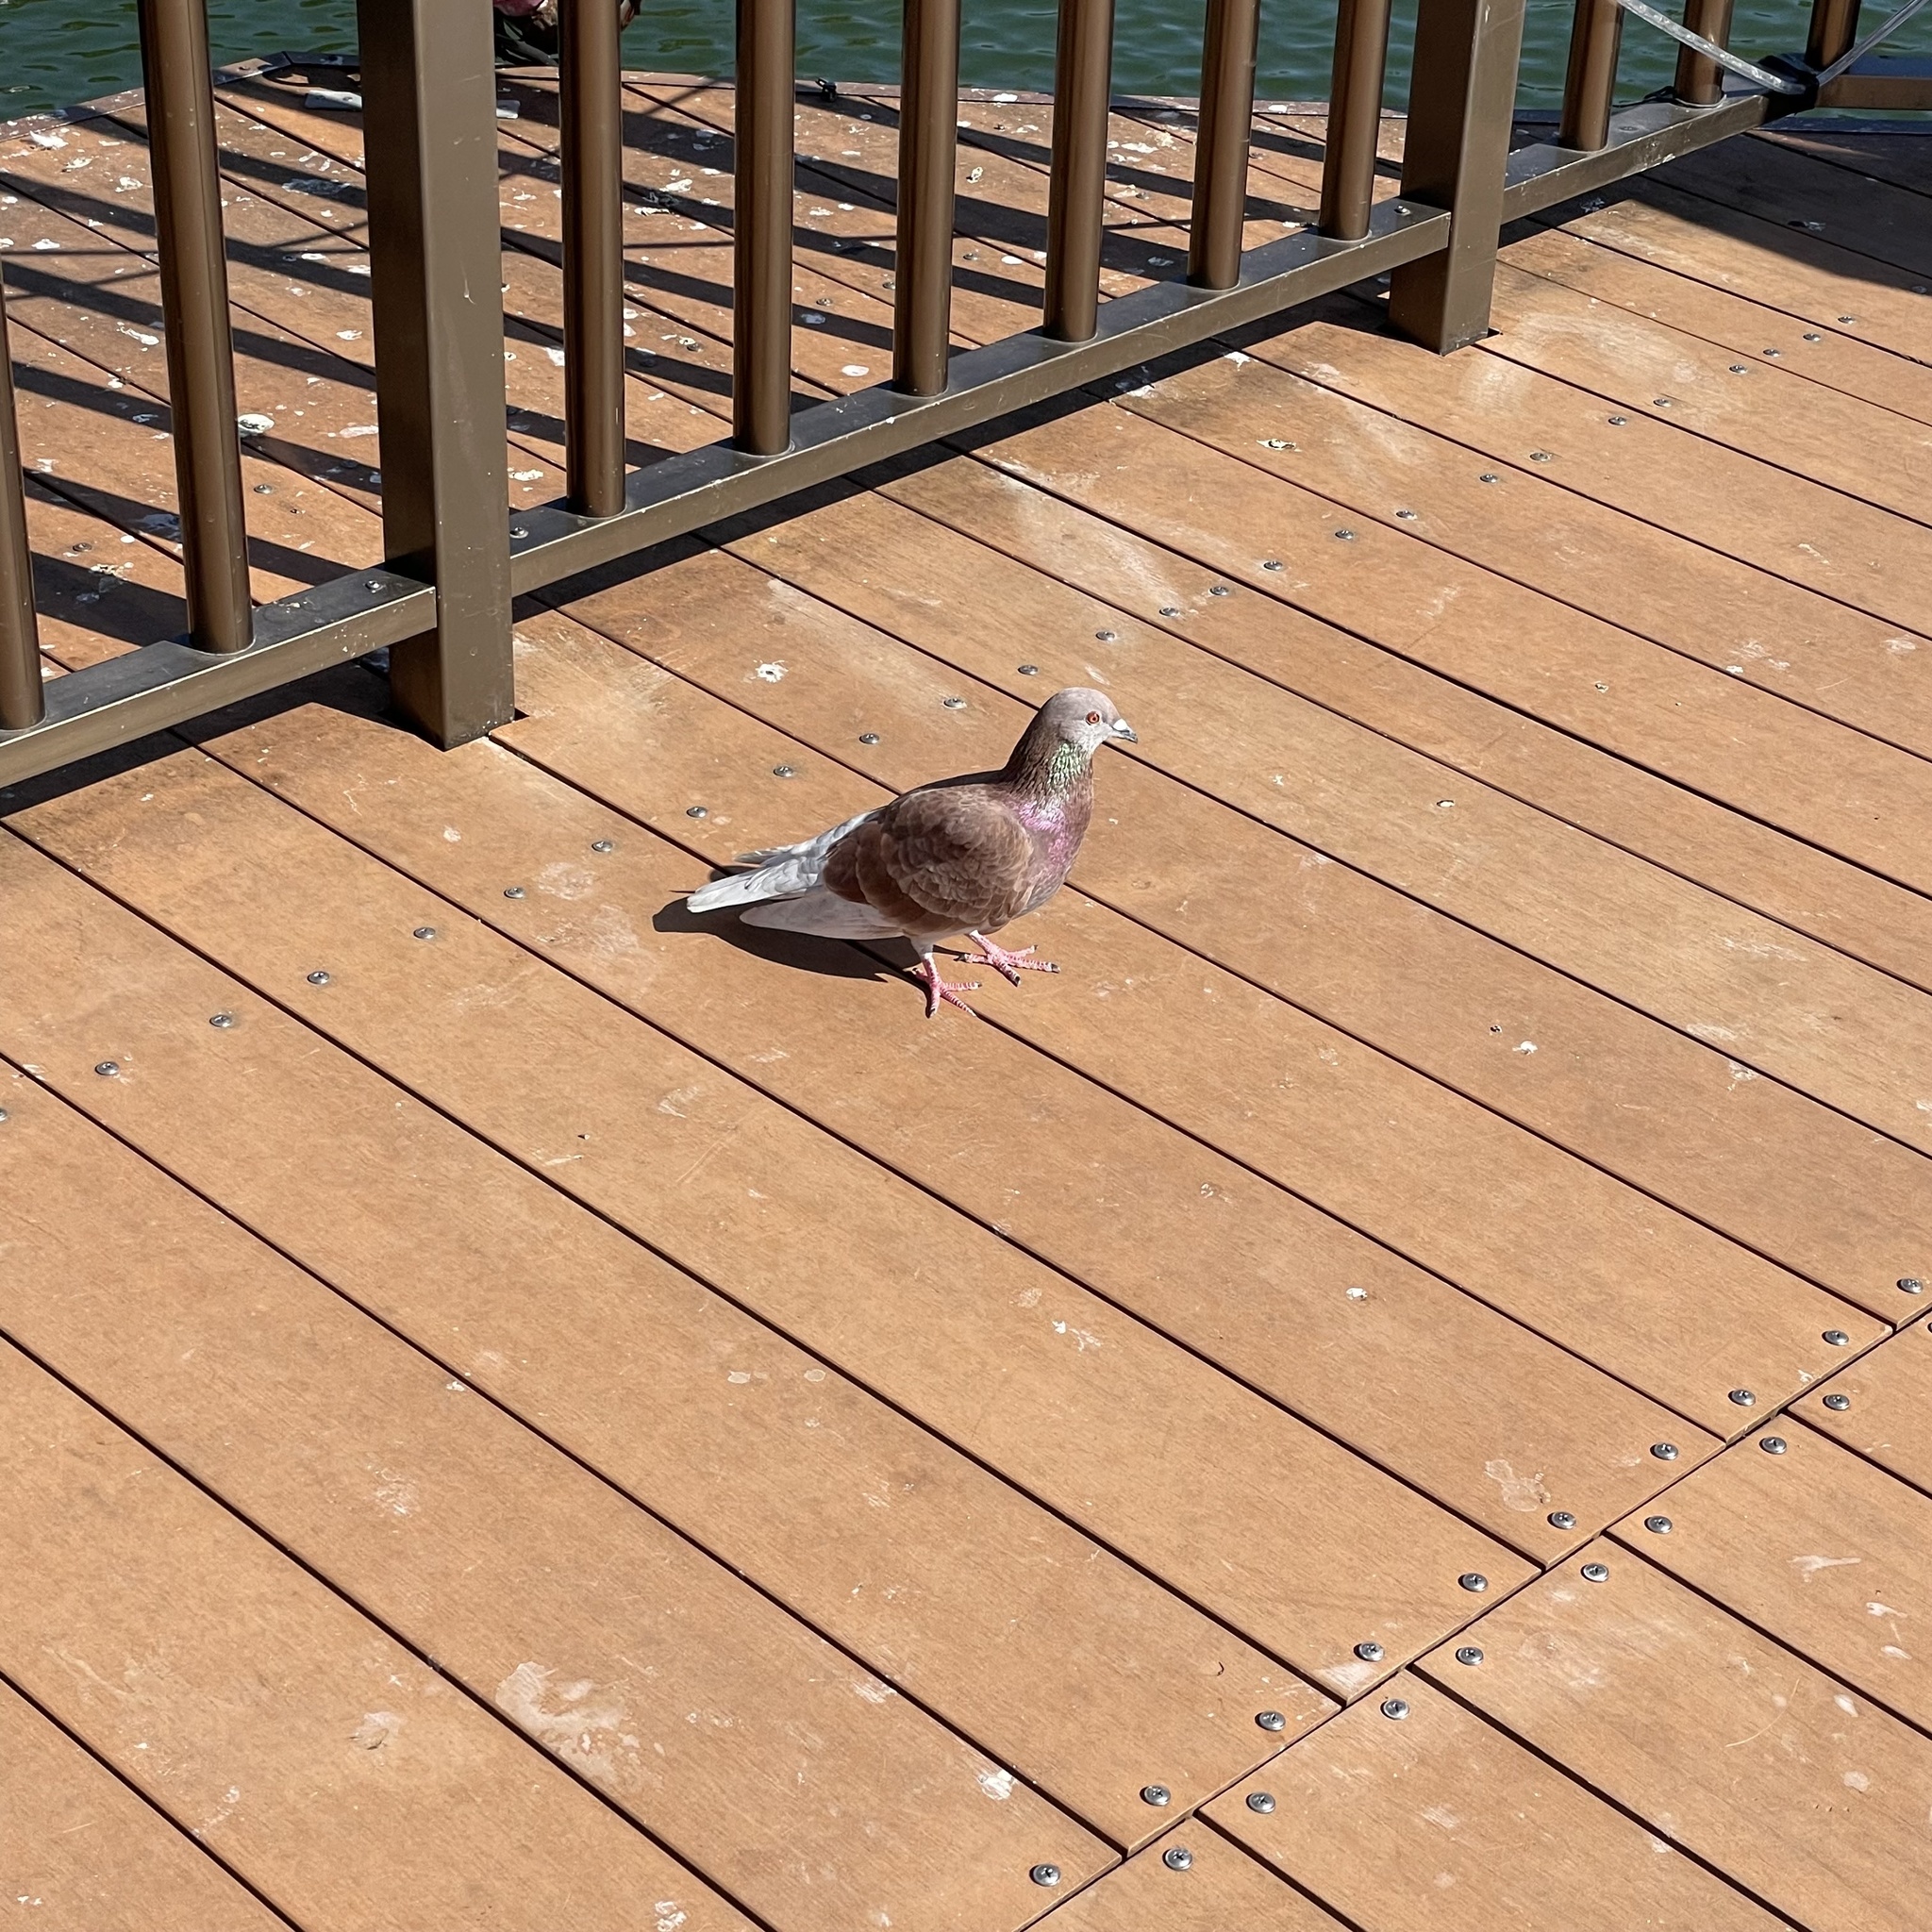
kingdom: Animalia
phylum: Chordata
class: Aves
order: Columbiformes
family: Columbidae
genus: Columba
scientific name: Columba livia
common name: Rock pigeon
